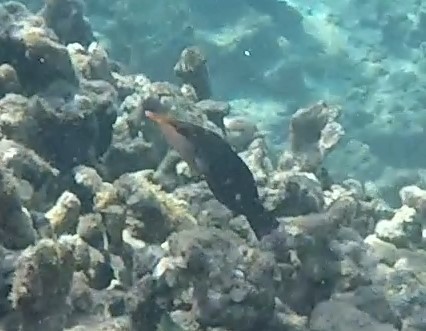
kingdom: Animalia
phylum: Chordata
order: Perciformes
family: Labridae
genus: Gomphosus
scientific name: Gomphosus varius
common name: Bird wrasse
